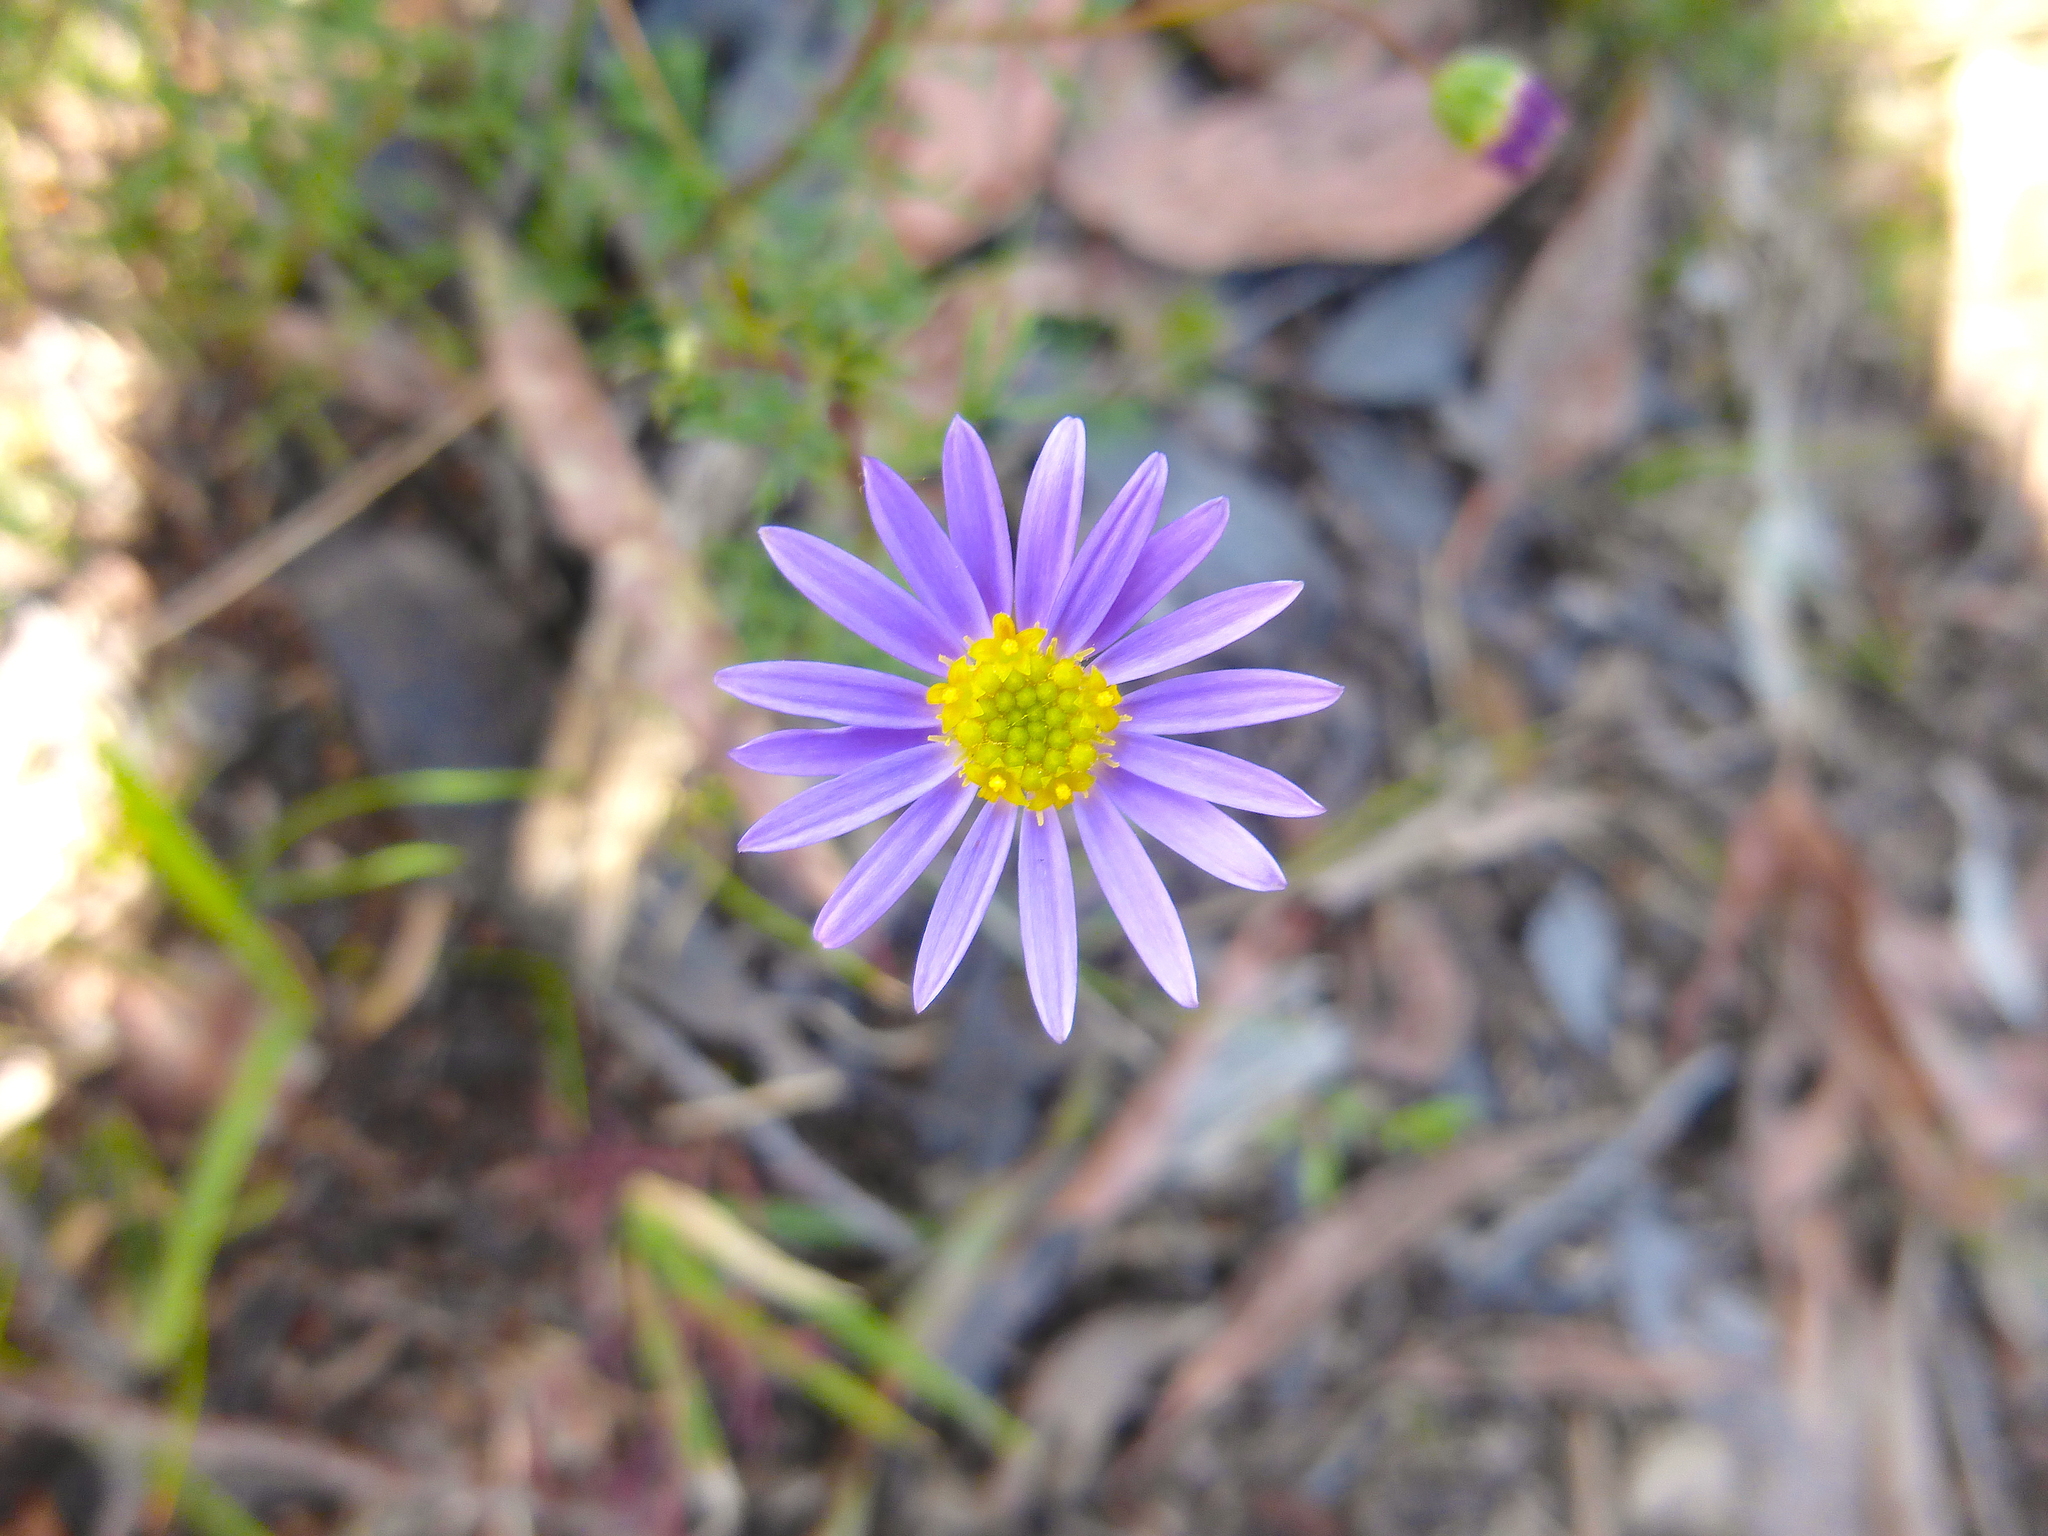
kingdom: Plantae
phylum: Tracheophyta
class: Magnoliopsida
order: Asterales
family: Asteraceae
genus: Brachyscome
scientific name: Brachyscome multifida
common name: Cut-leaf daisy
